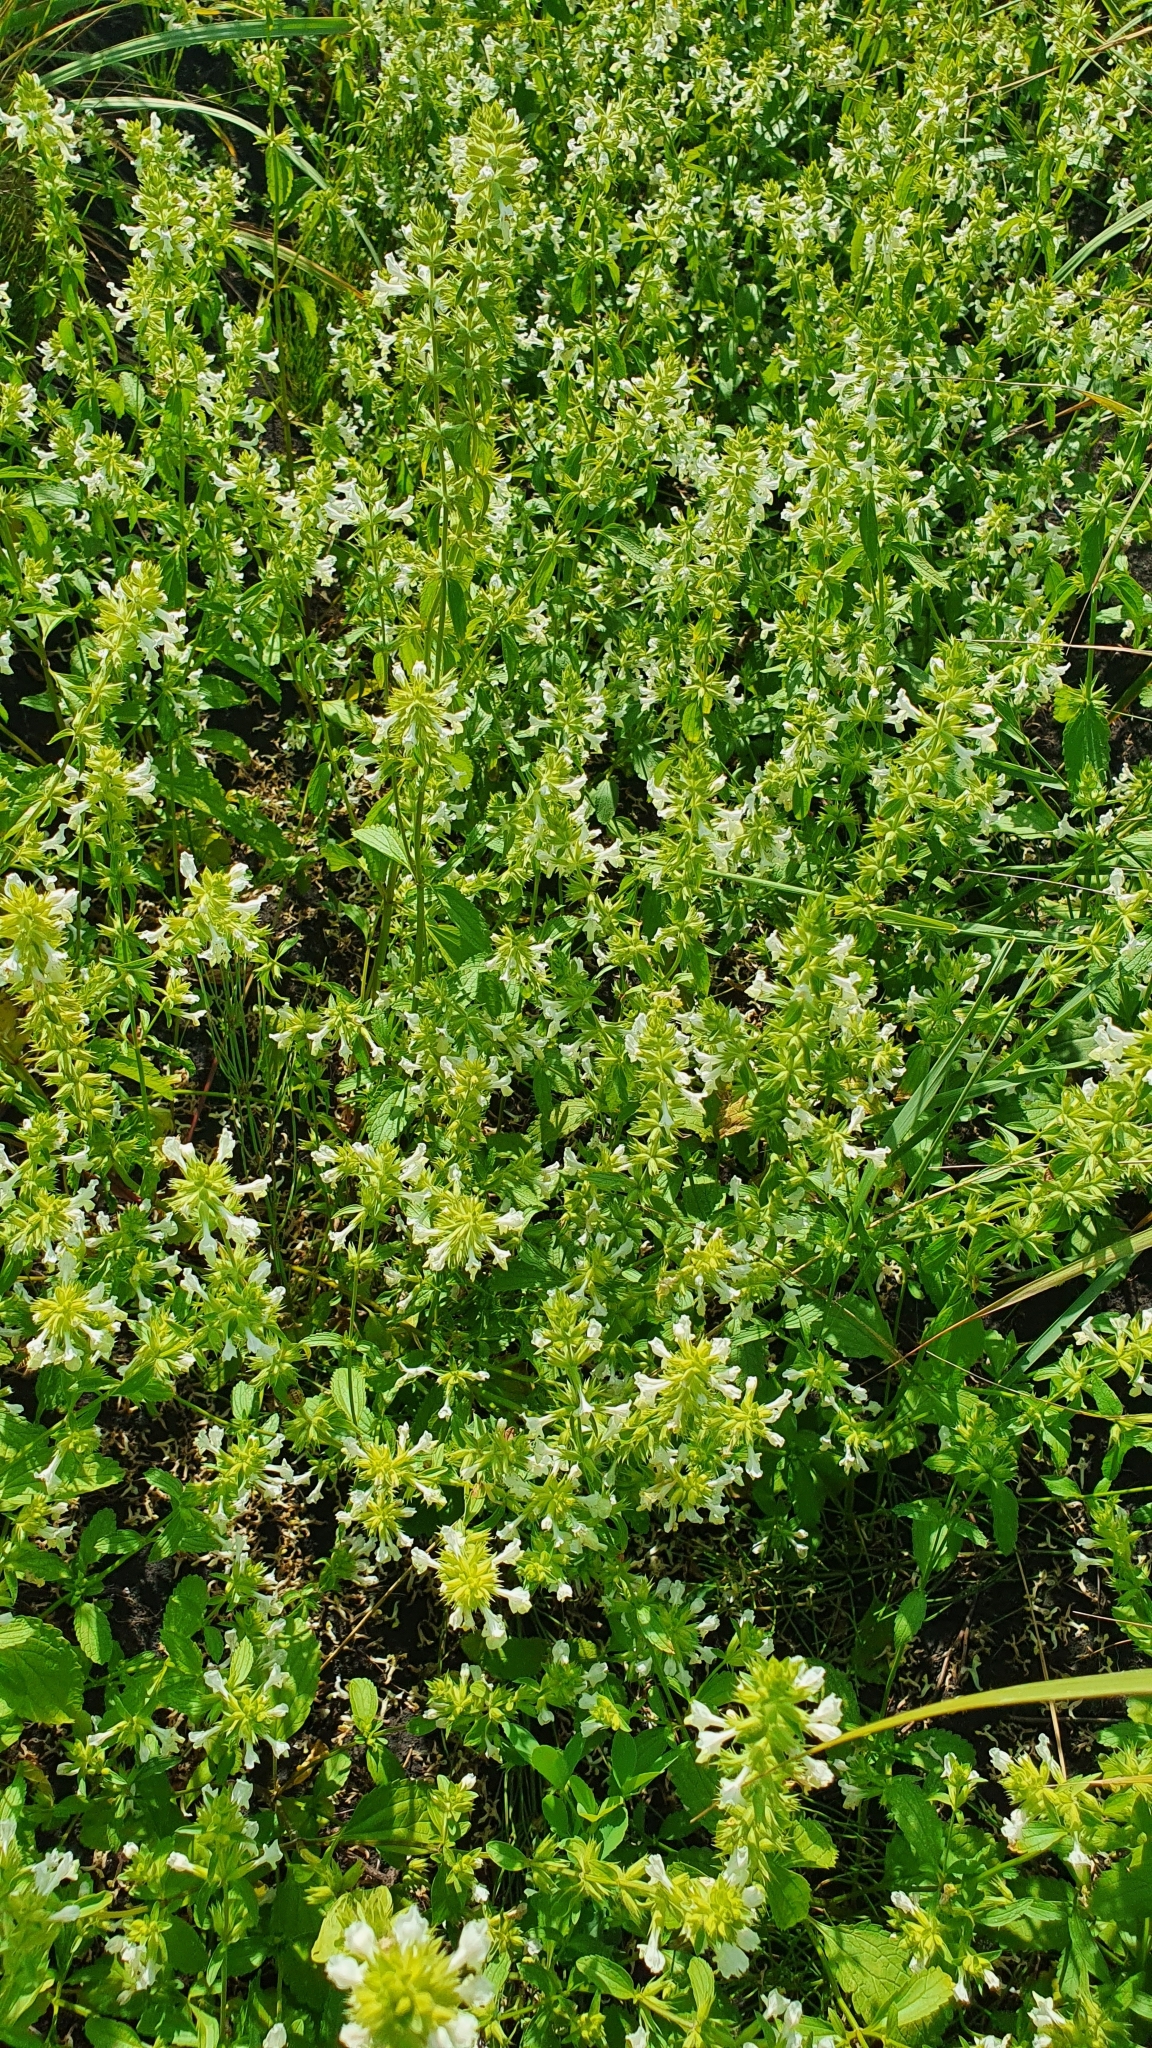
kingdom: Plantae
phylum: Tracheophyta
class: Magnoliopsida
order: Lamiales
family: Lamiaceae
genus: Stachys
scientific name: Stachys annua
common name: Annual yellow-woundwort
